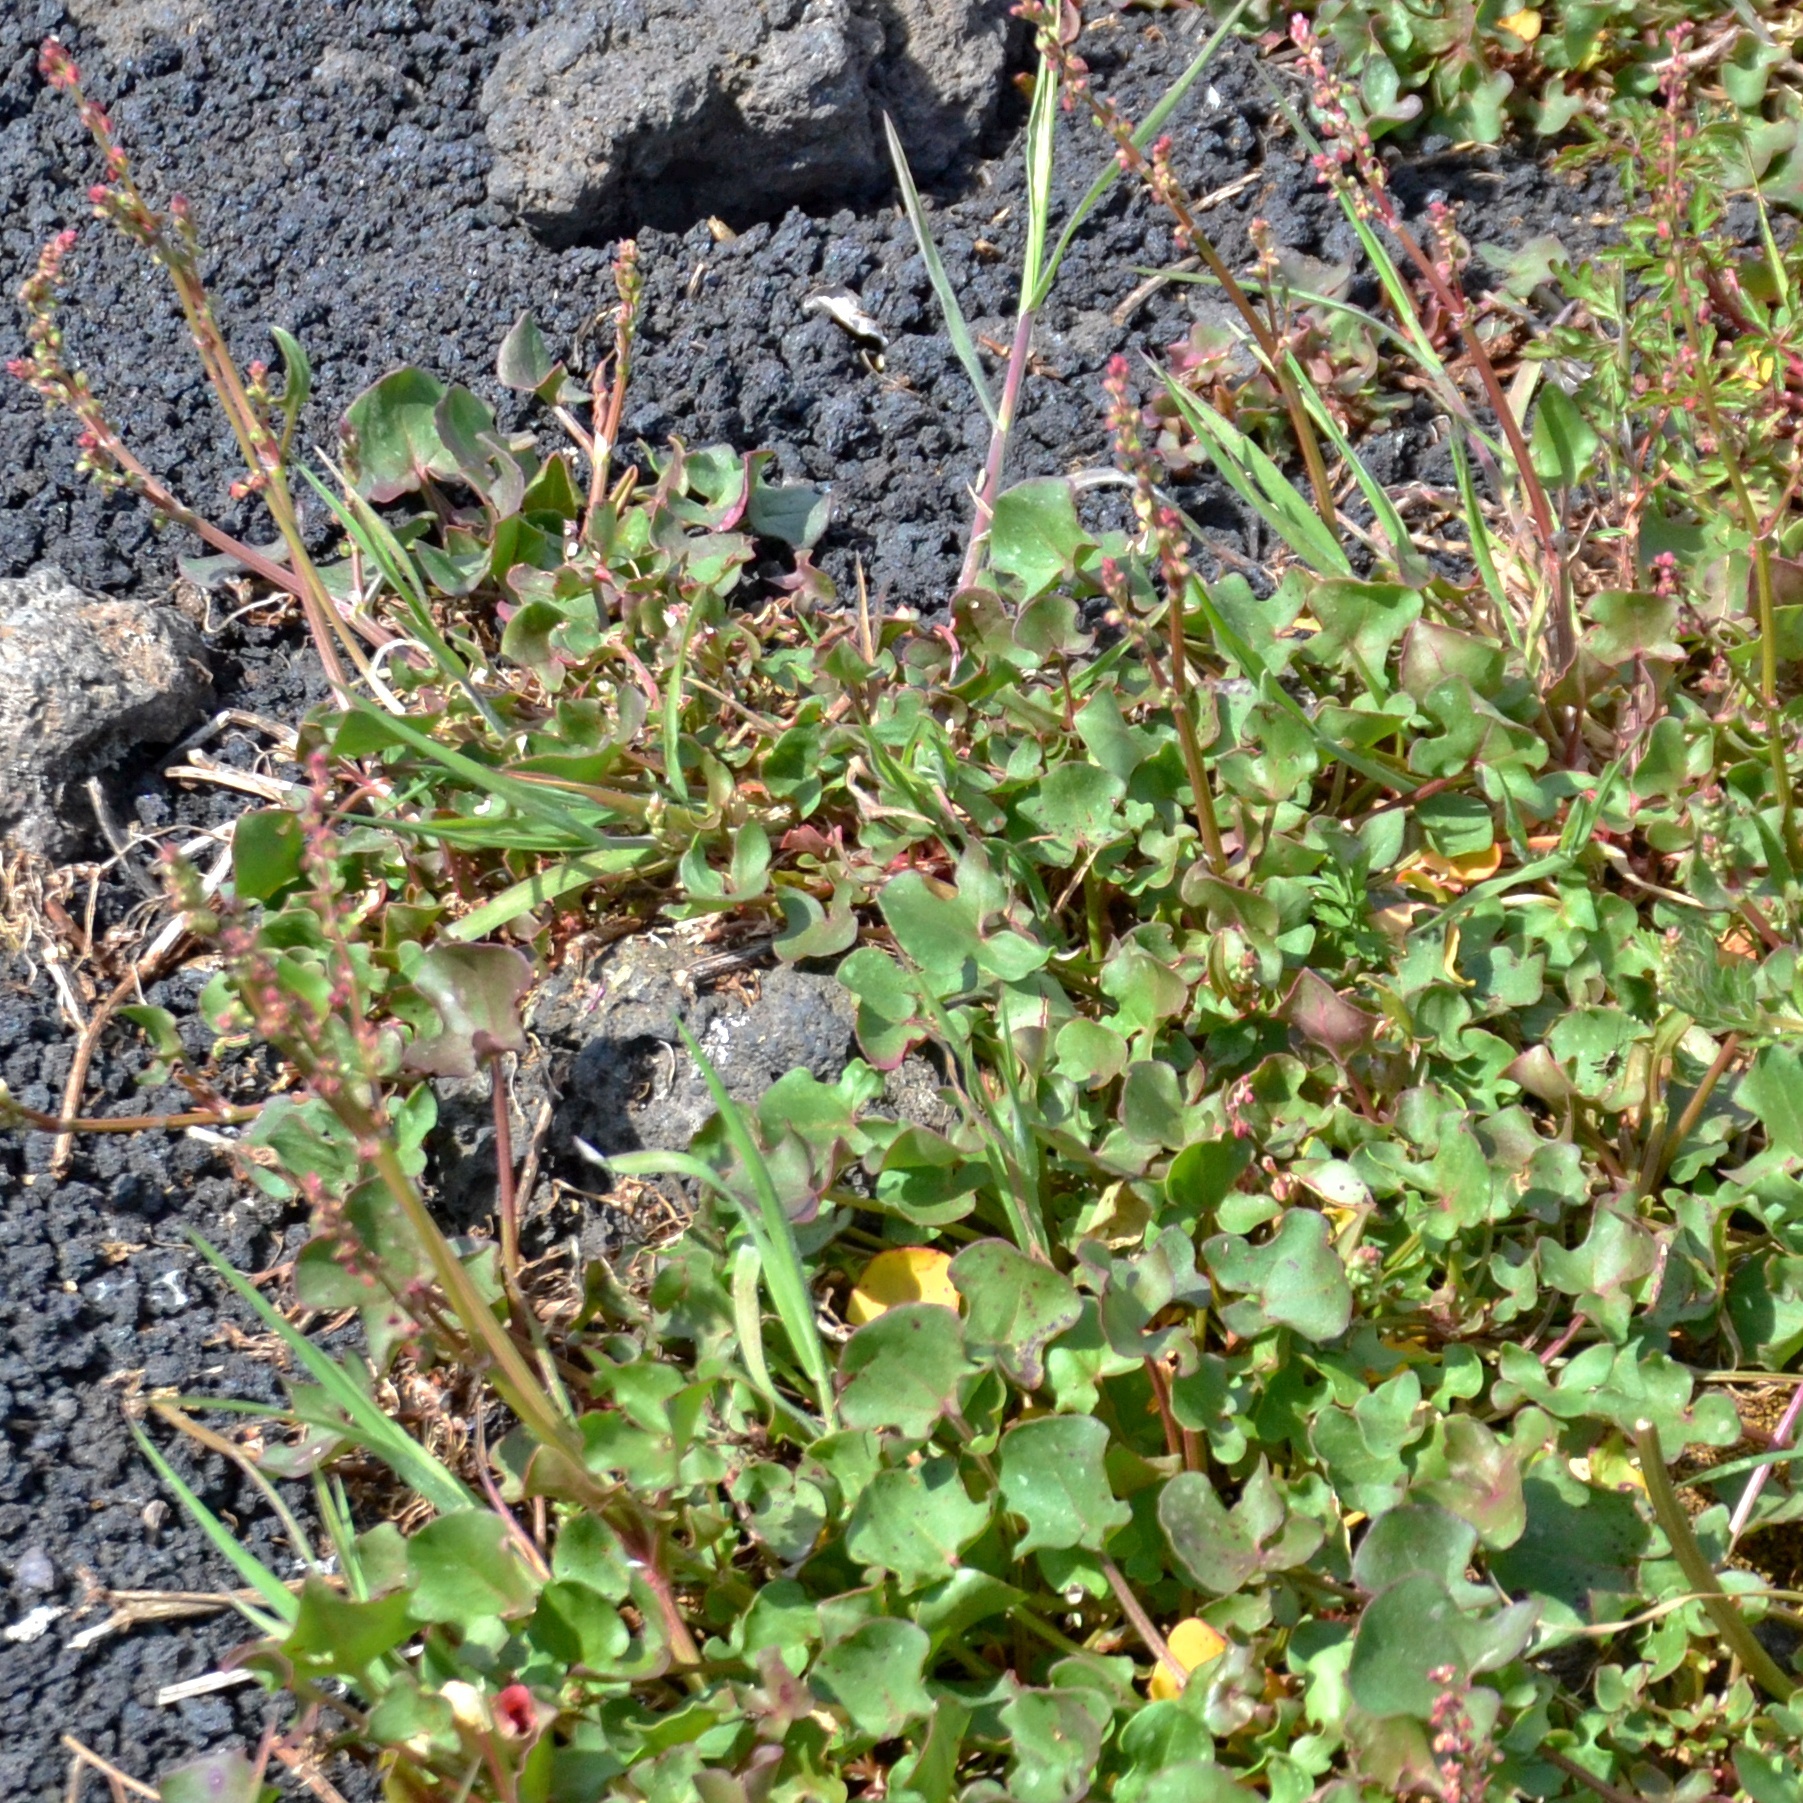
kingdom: Plantae
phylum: Tracheophyta
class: Magnoliopsida
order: Caryophyllales
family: Polygonaceae
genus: Rumex
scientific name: Rumex aetnensis
